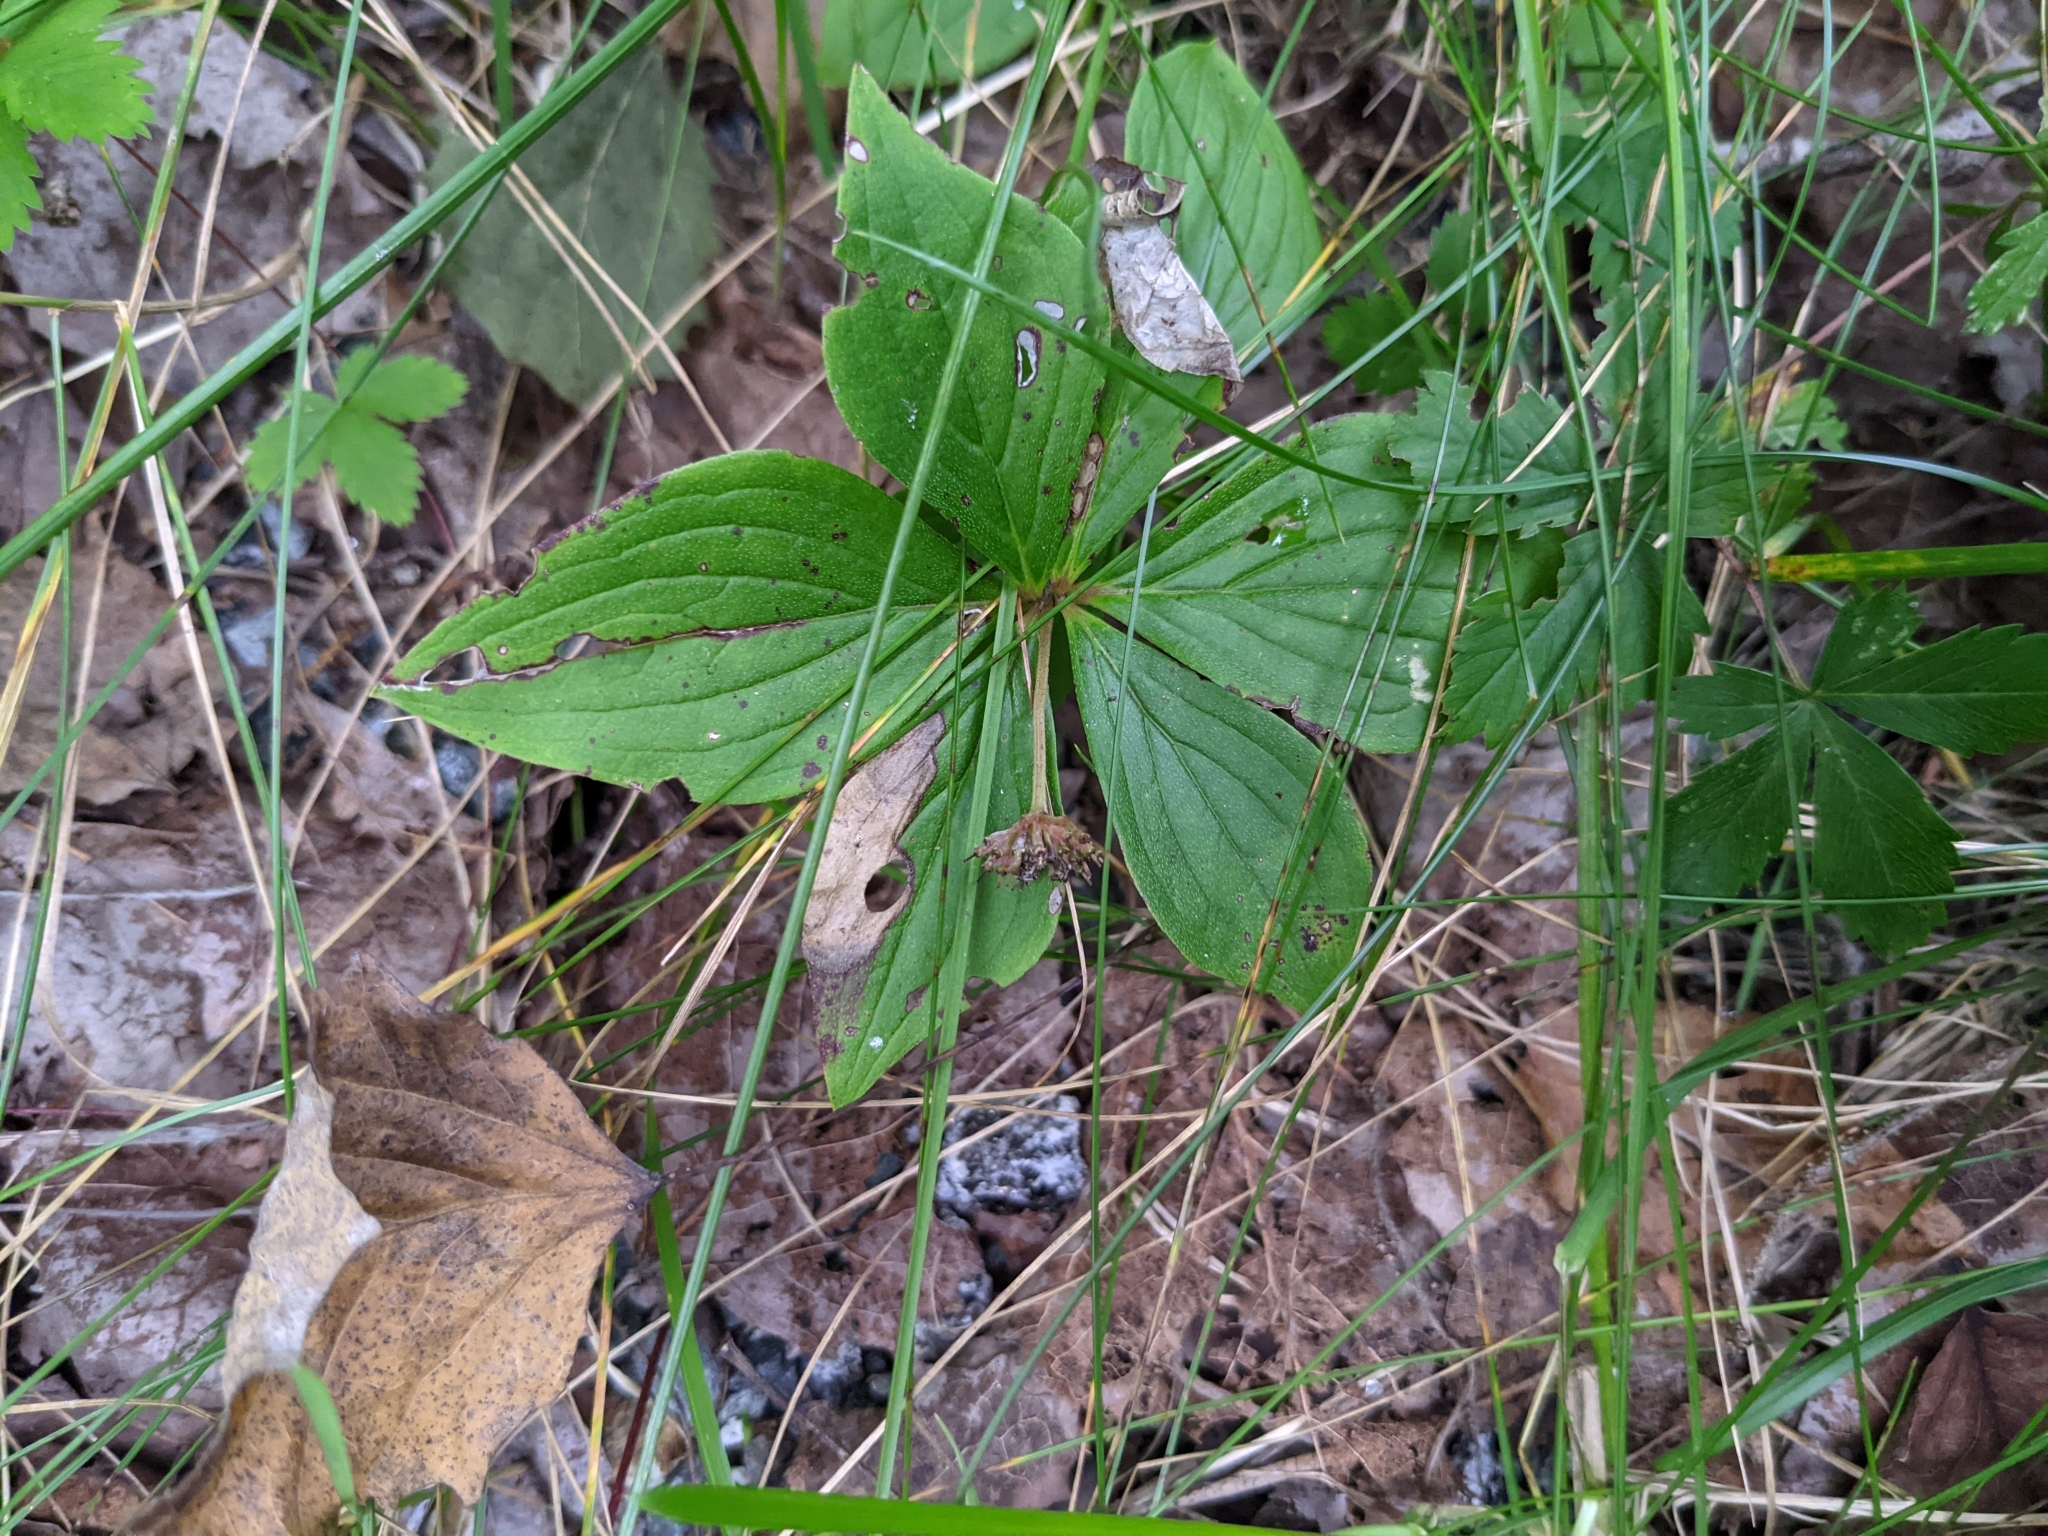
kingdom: Plantae
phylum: Tracheophyta
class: Magnoliopsida
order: Cornales
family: Cornaceae
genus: Cornus
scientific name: Cornus canadensis
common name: Creeping dogwood
